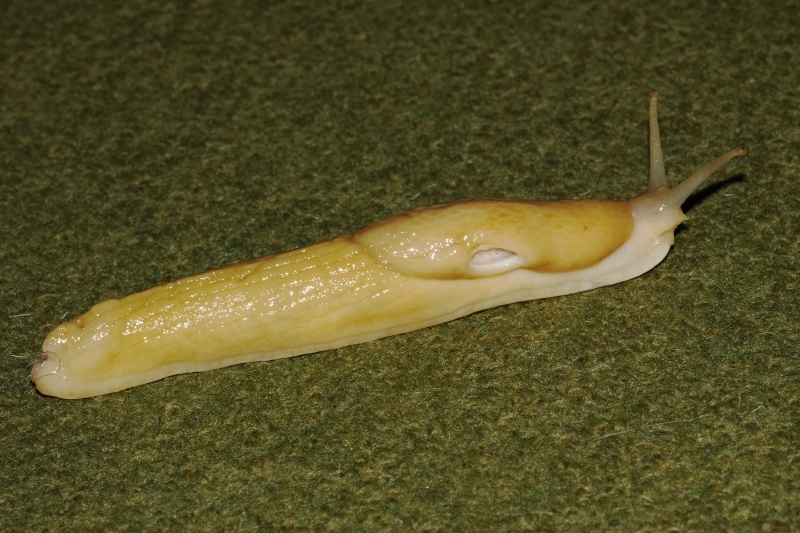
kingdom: Animalia
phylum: Mollusca
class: Gastropoda
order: Stylommatophora
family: Urocyclidae
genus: Polytoxon
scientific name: Polytoxon robustum
